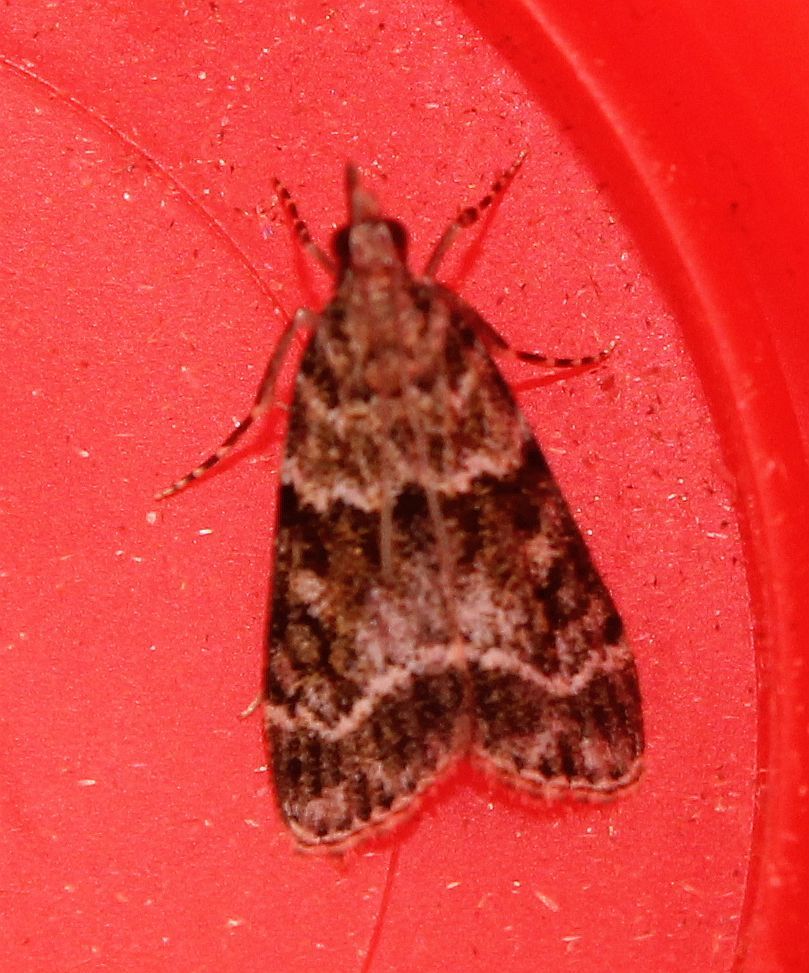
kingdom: Animalia
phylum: Arthropoda
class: Insecta
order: Lepidoptera
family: Crambidae
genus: Eudonia
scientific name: Eudonia mercurella
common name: Small grey
